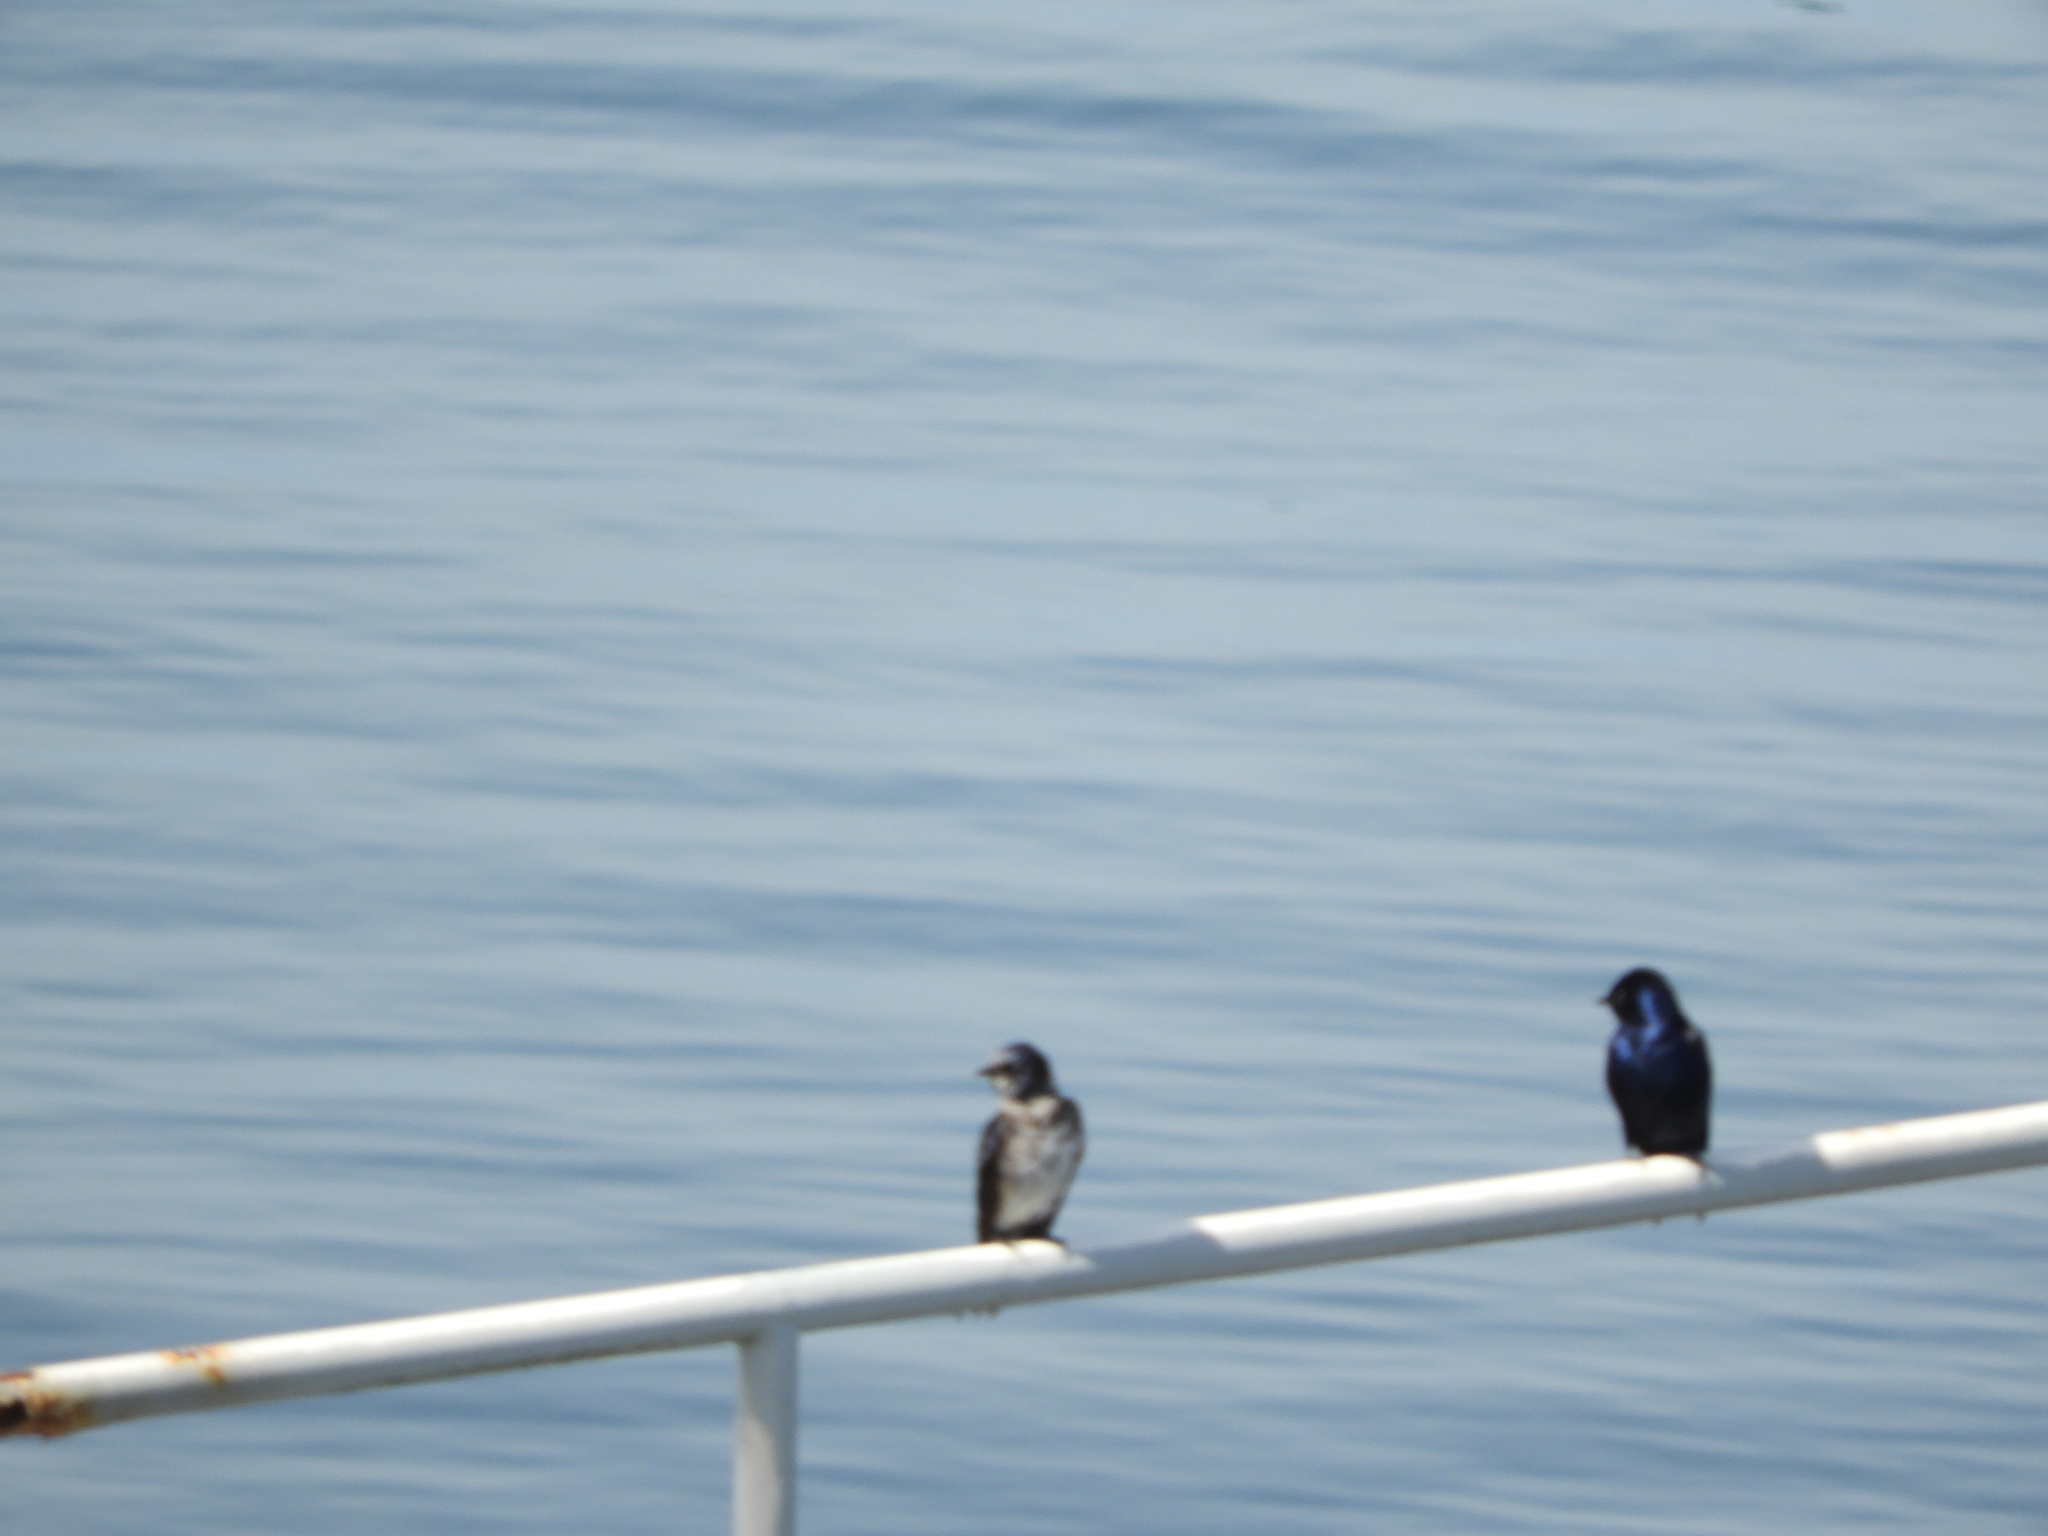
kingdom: Animalia
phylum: Chordata
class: Aves
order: Passeriformes
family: Hirundinidae
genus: Progne
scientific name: Progne subis
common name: Purple martin
